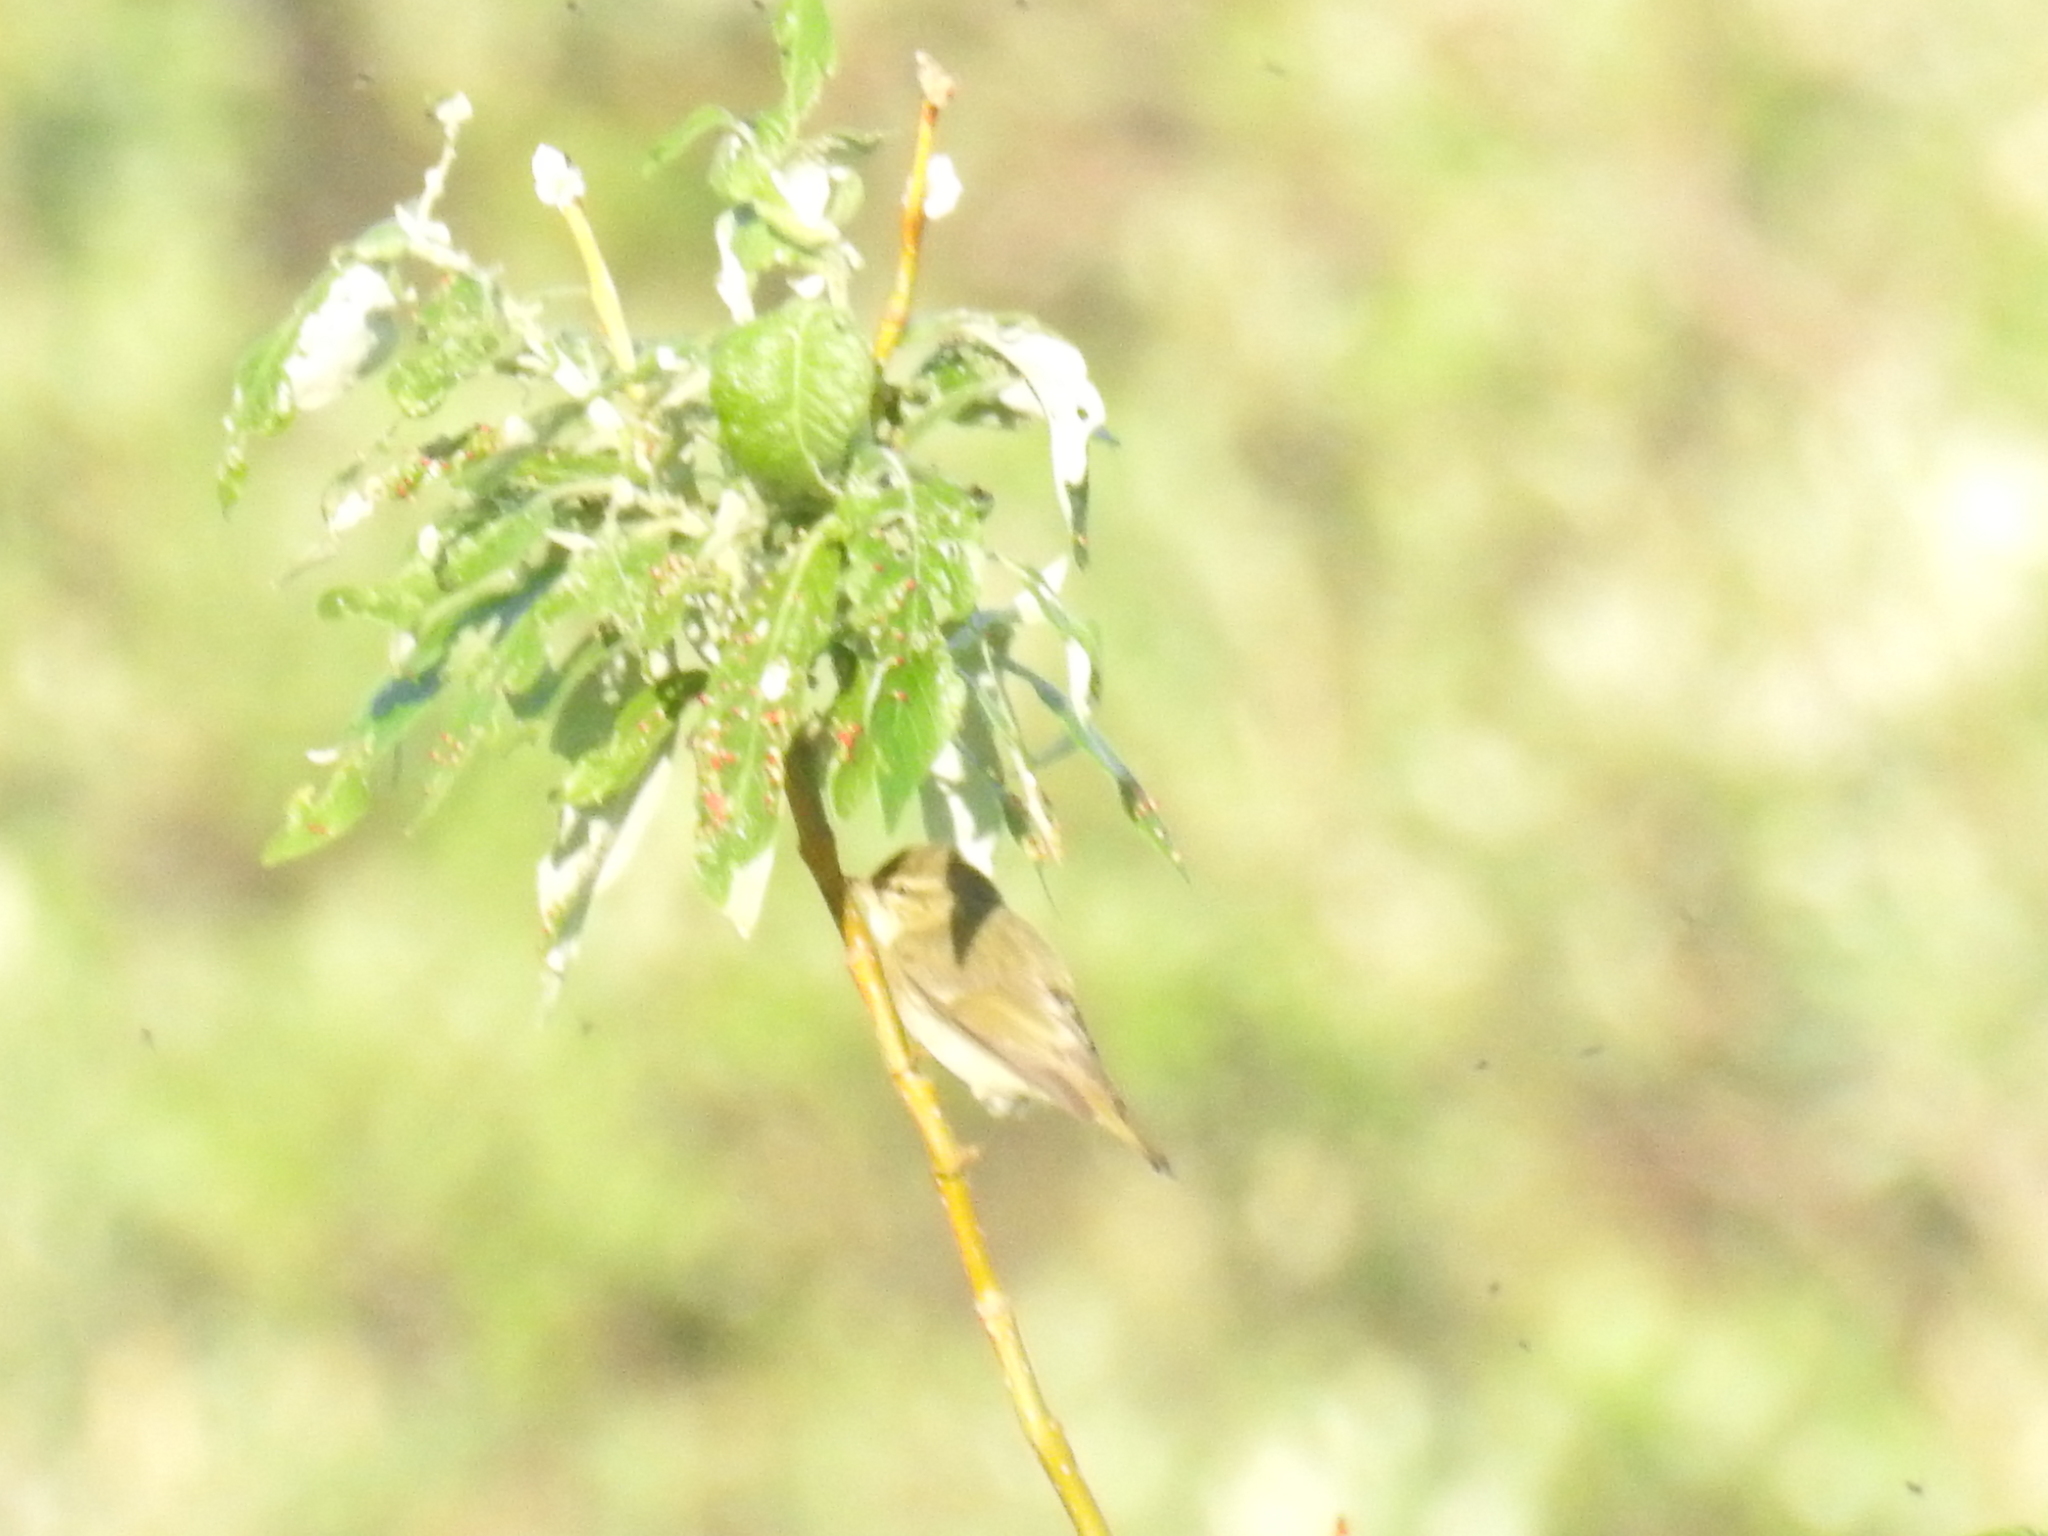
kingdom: Animalia
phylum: Chordata
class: Aves
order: Passeriformes
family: Phylloscopidae
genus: Phylloscopus
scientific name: Phylloscopus borealis
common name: Arctic warbler
